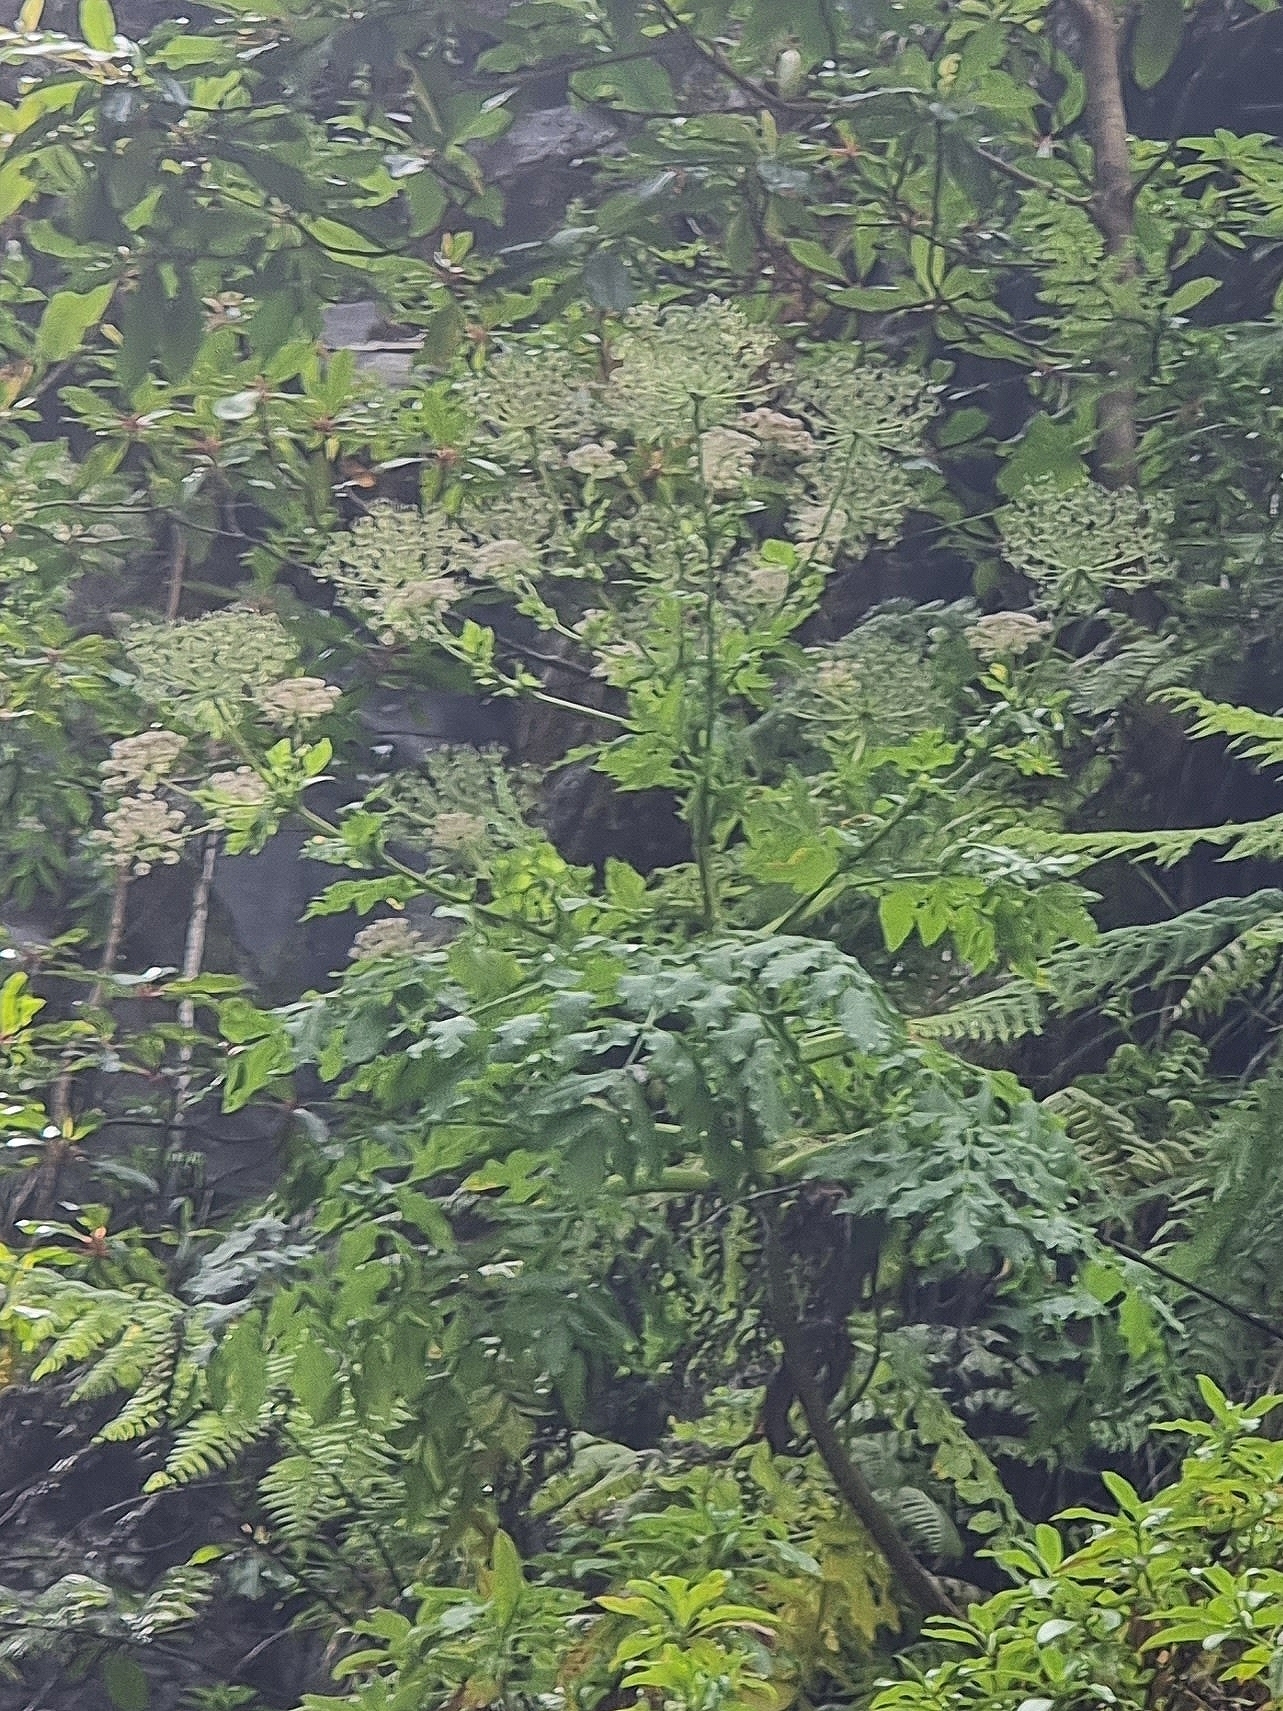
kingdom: Plantae
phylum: Tracheophyta
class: Magnoliopsida
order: Apiales
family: Apiaceae
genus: Daucus
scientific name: Daucus decipiens
